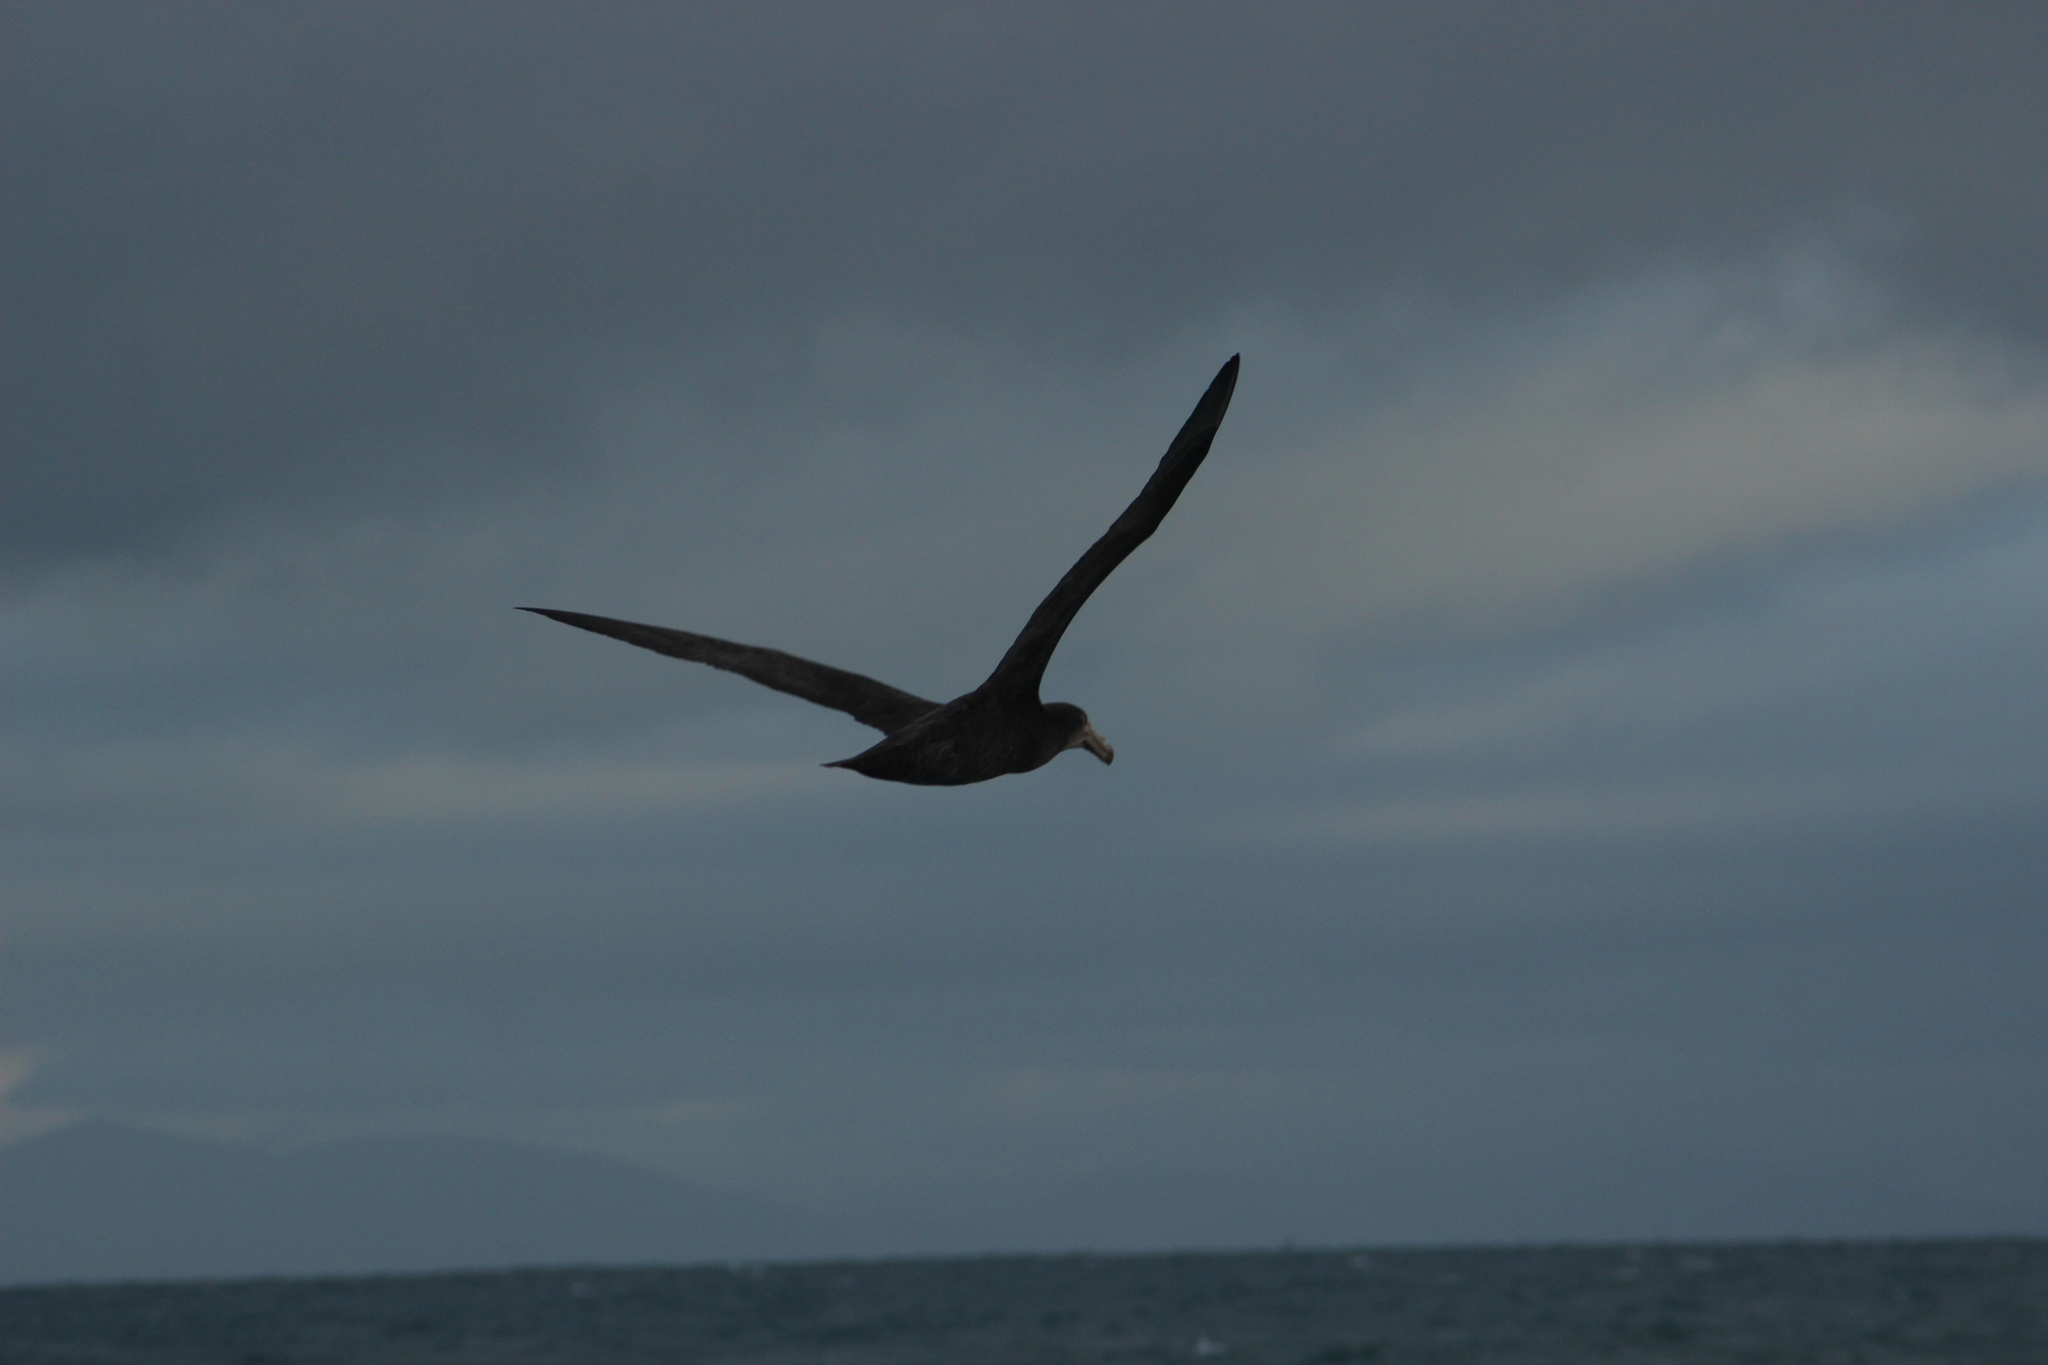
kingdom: Animalia
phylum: Chordata
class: Aves
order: Procellariiformes
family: Procellariidae
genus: Macronectes
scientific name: Macronectes halli
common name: Northern giant petrel
